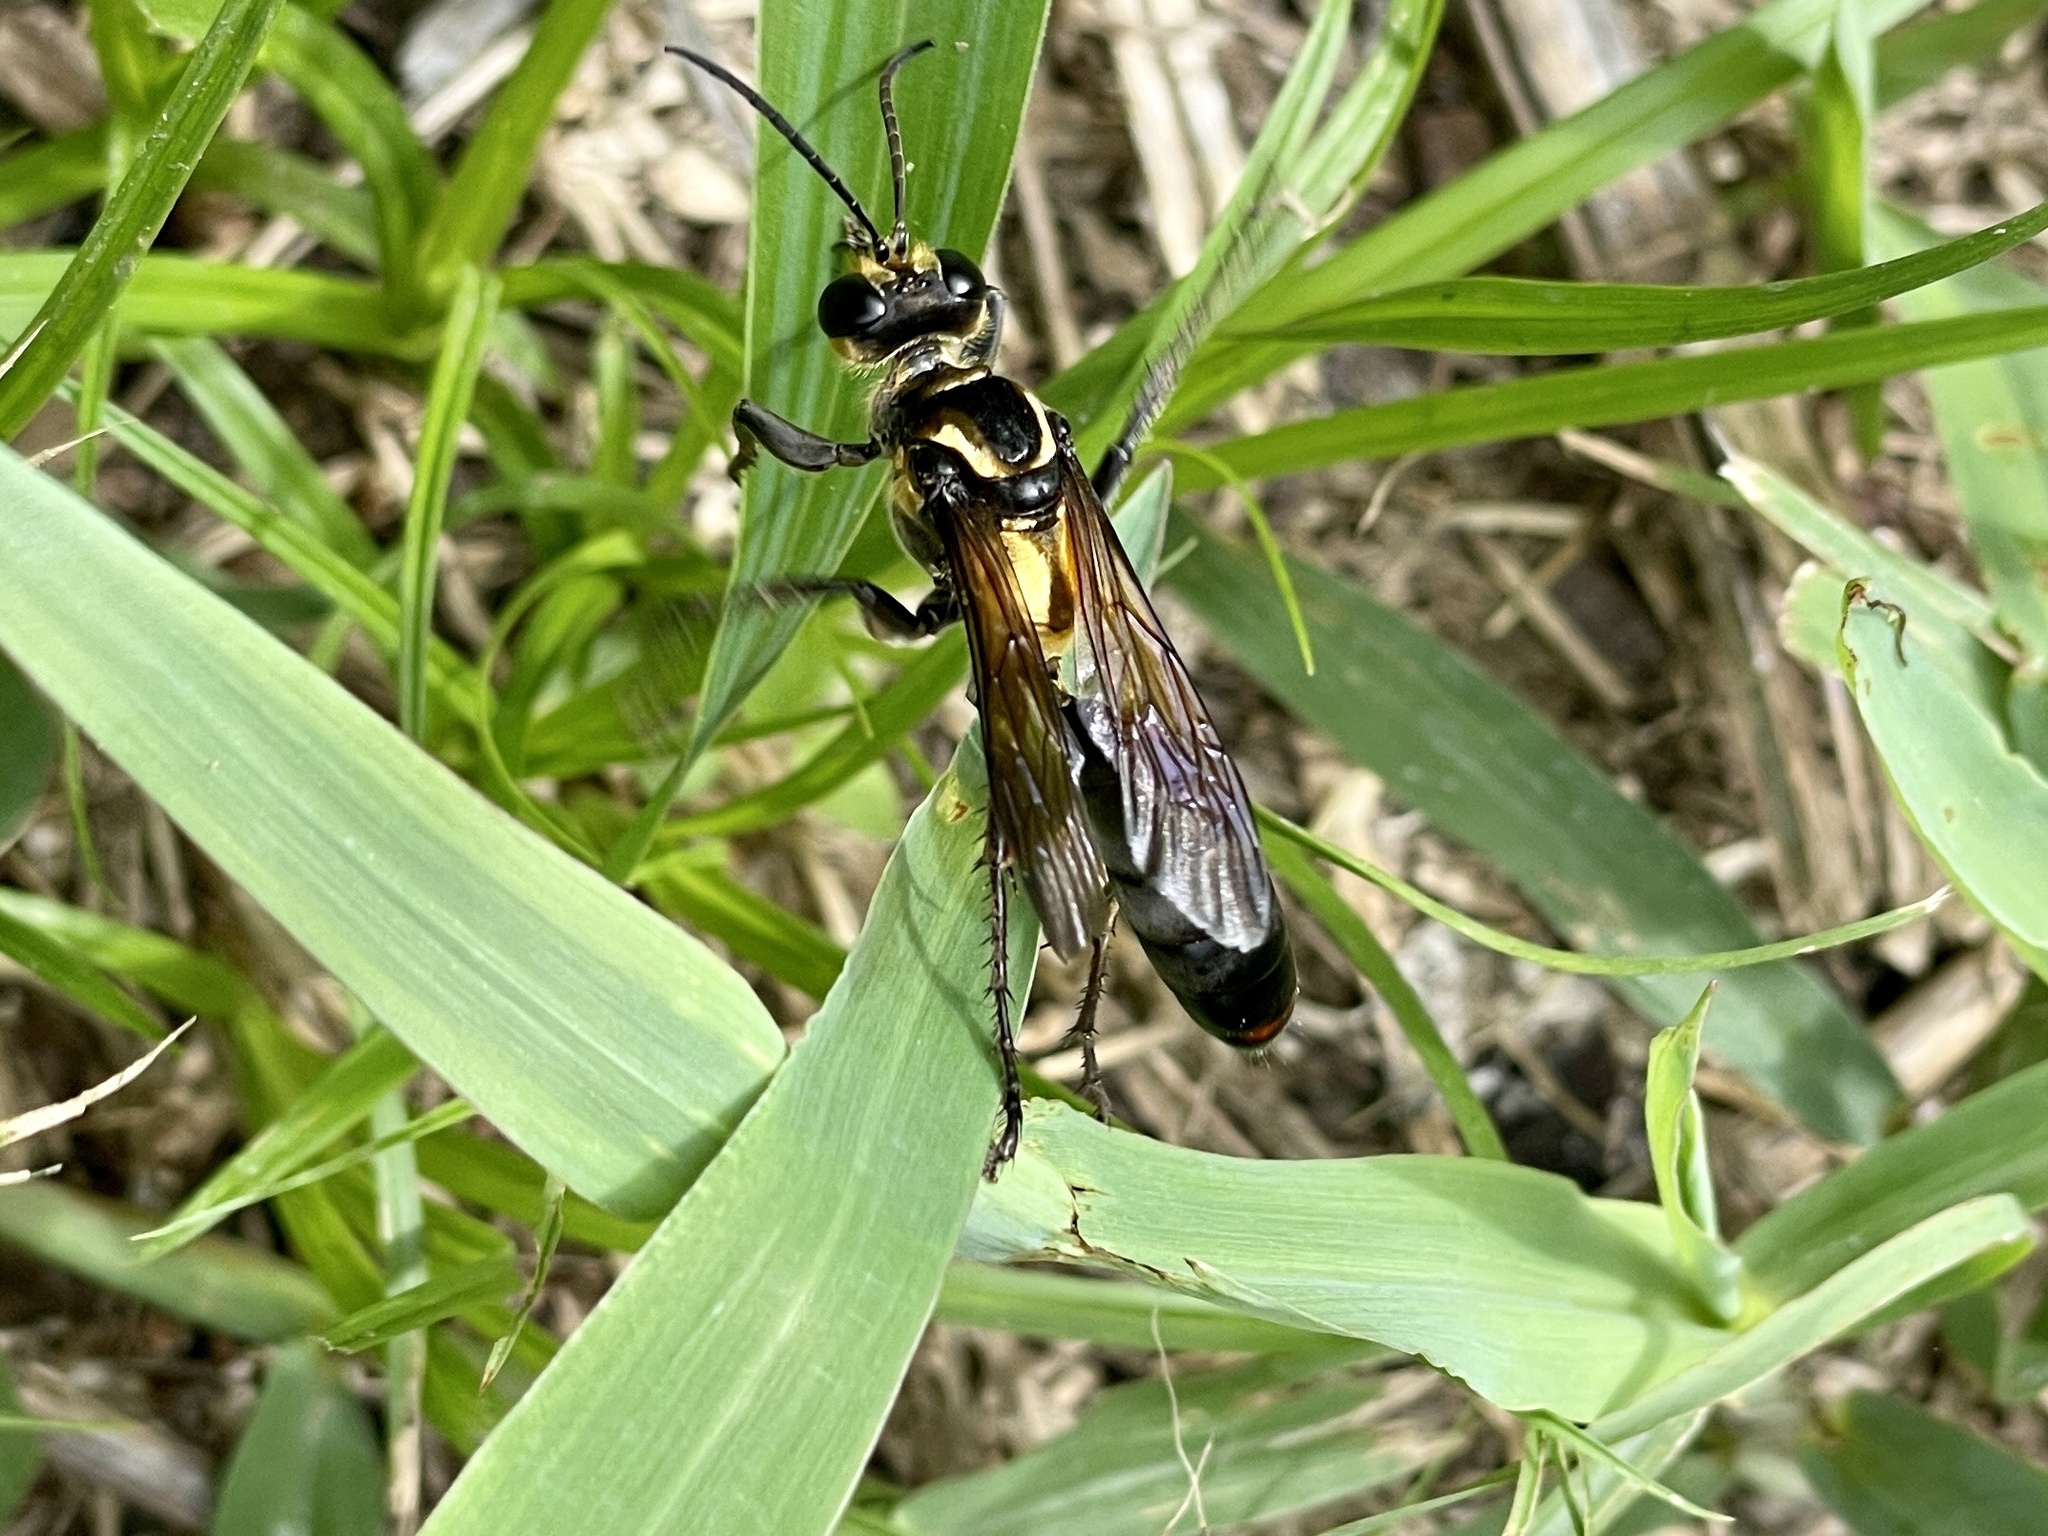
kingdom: Animalia
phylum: Arthropoda
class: Insecta
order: Hymenoptera
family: Sphecidae
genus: Sphex
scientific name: Sphex habenus
